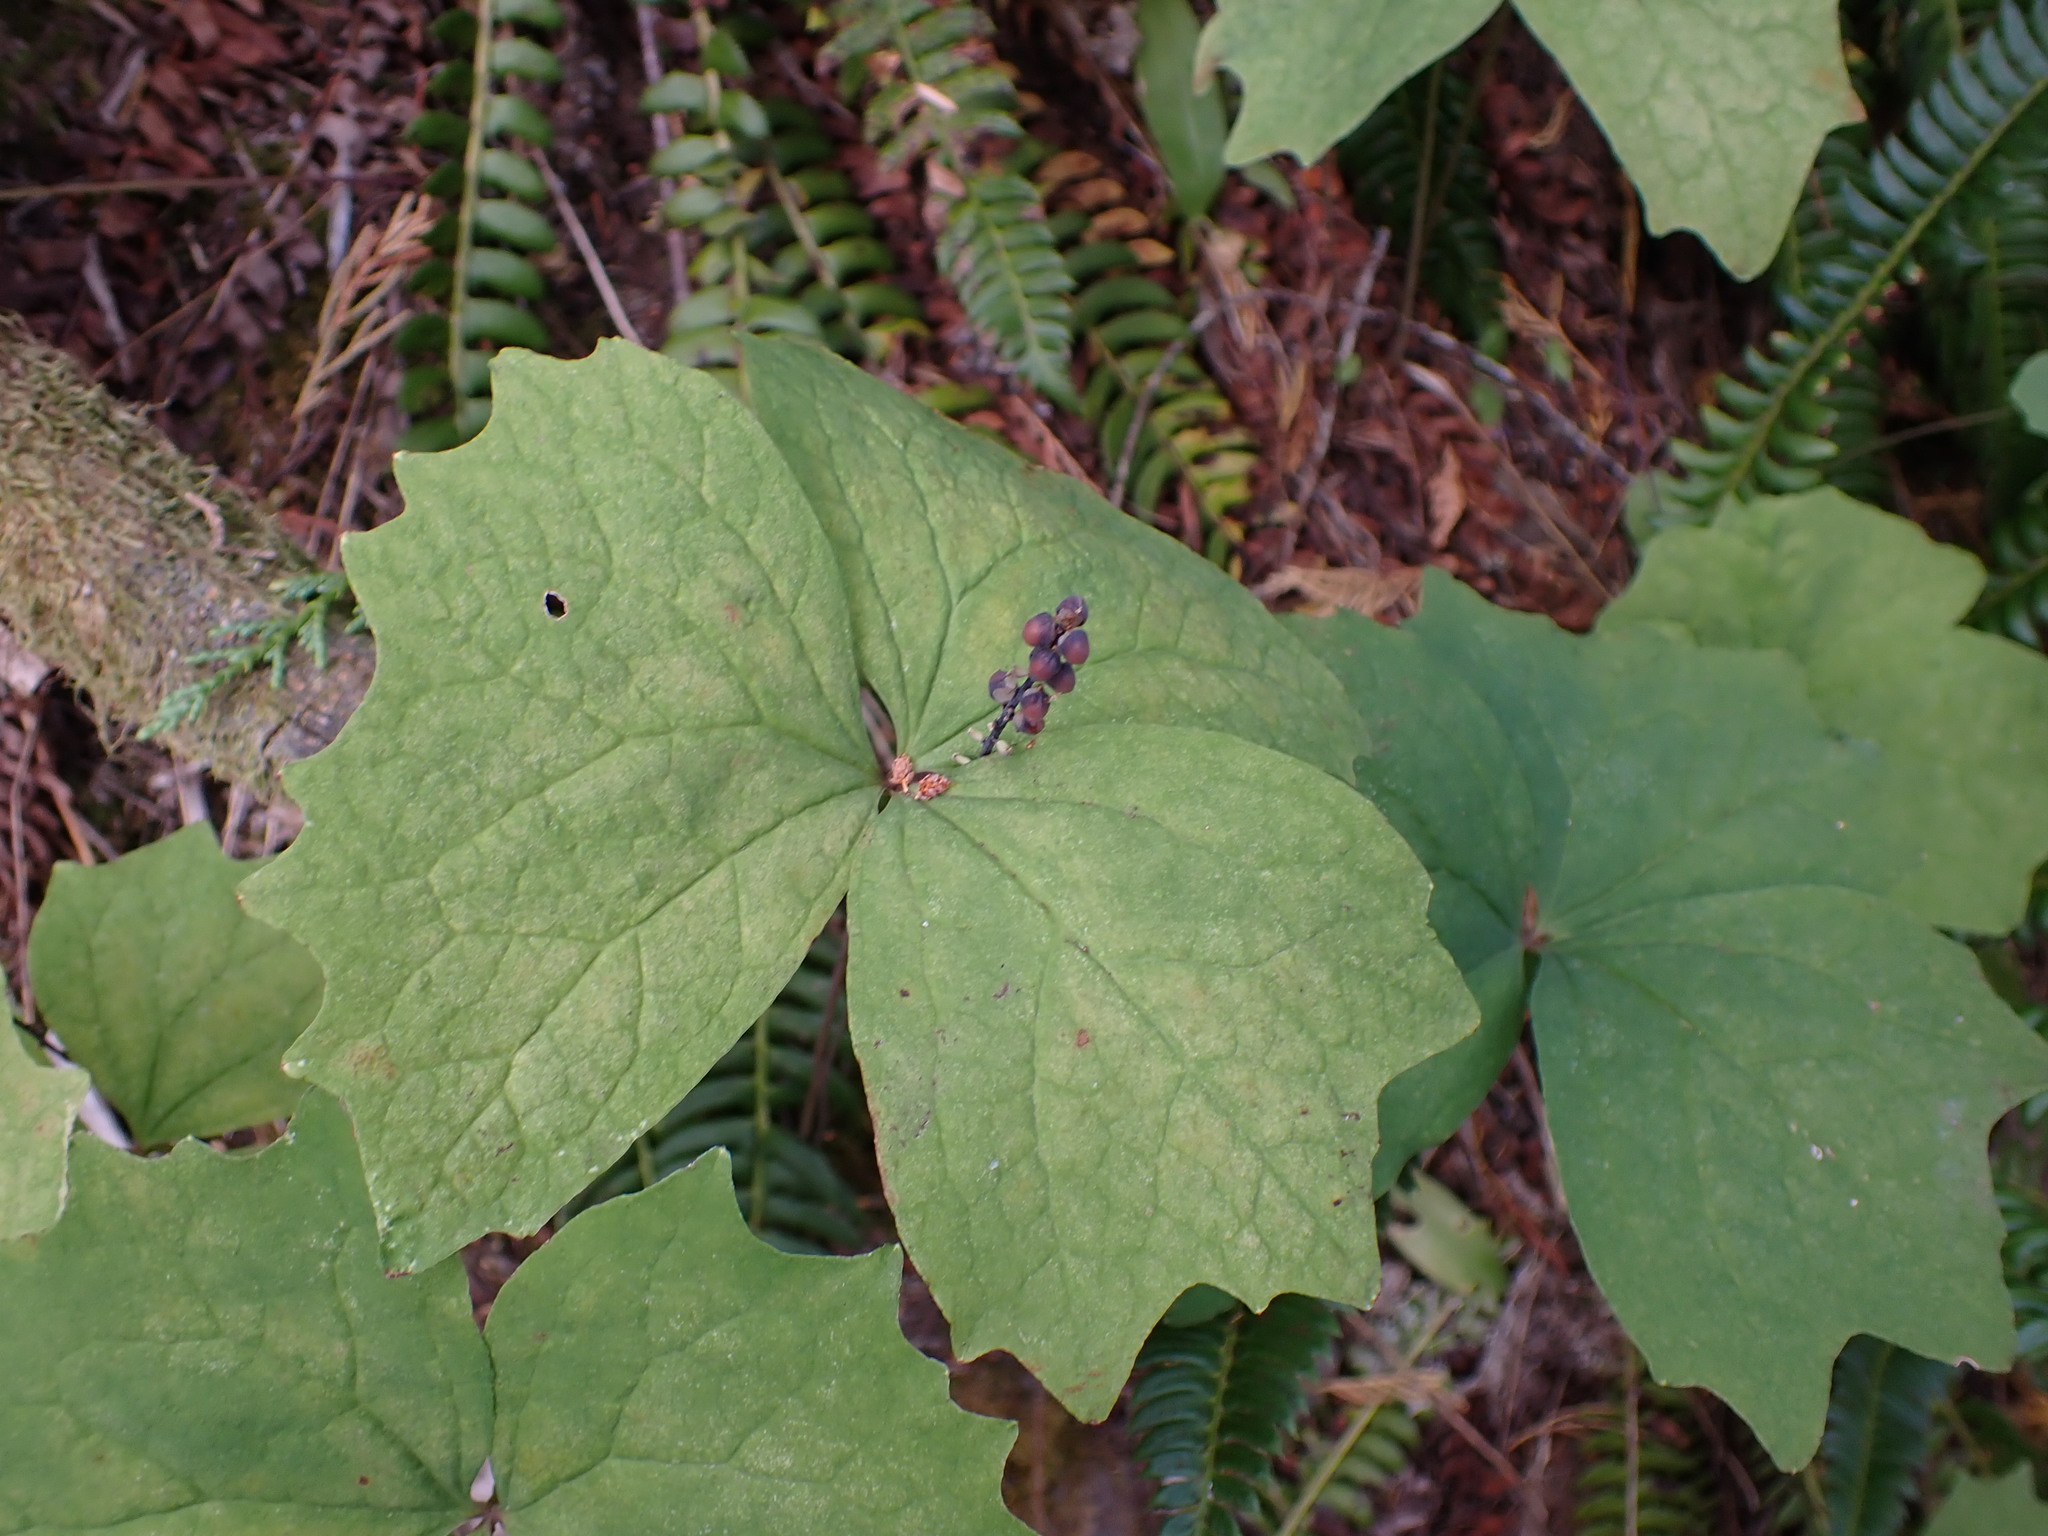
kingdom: Plantae
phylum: Tracheophyta
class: Magnoliopsida
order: Ranunculales
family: Berberidaceae
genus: Achlys
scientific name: Achlys triphylla
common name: Vanilla-leaf
